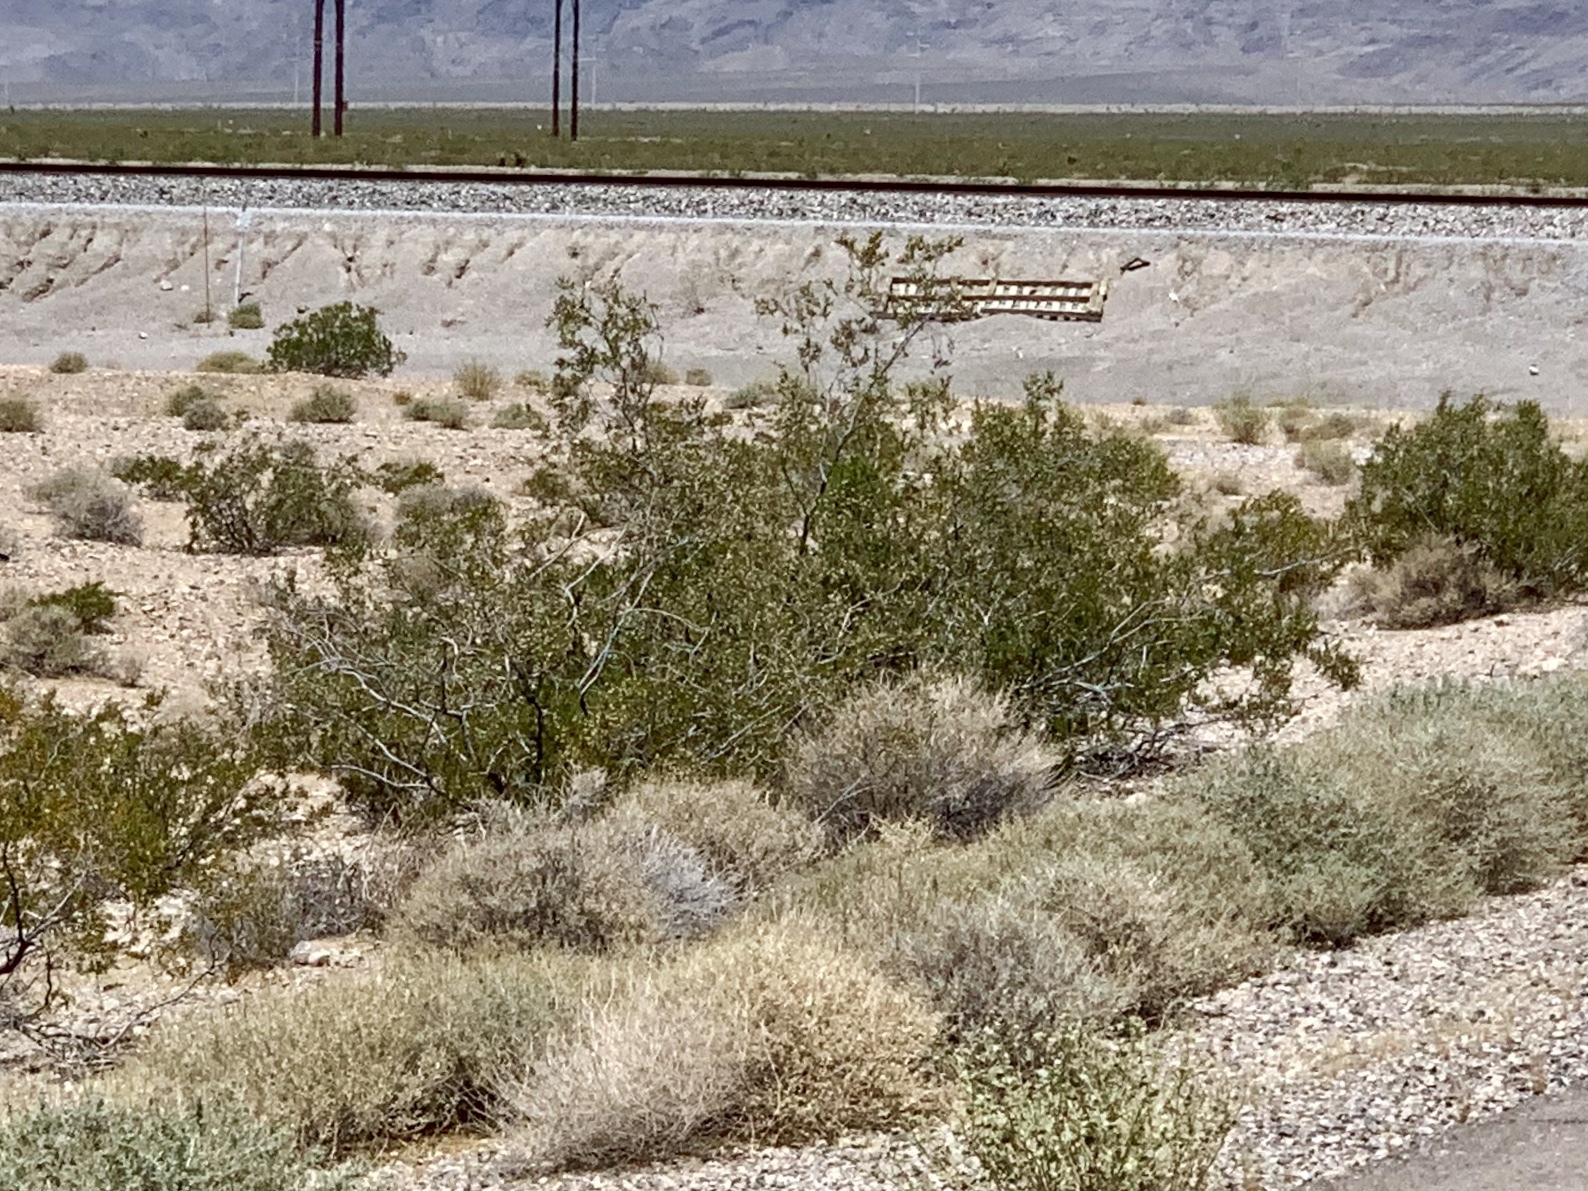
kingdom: Plantae
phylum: Tracheophyta
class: Magnoliopsida
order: Zygophyllales
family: Zygophyllaceae
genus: Larrea
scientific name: Larrea tridentata
